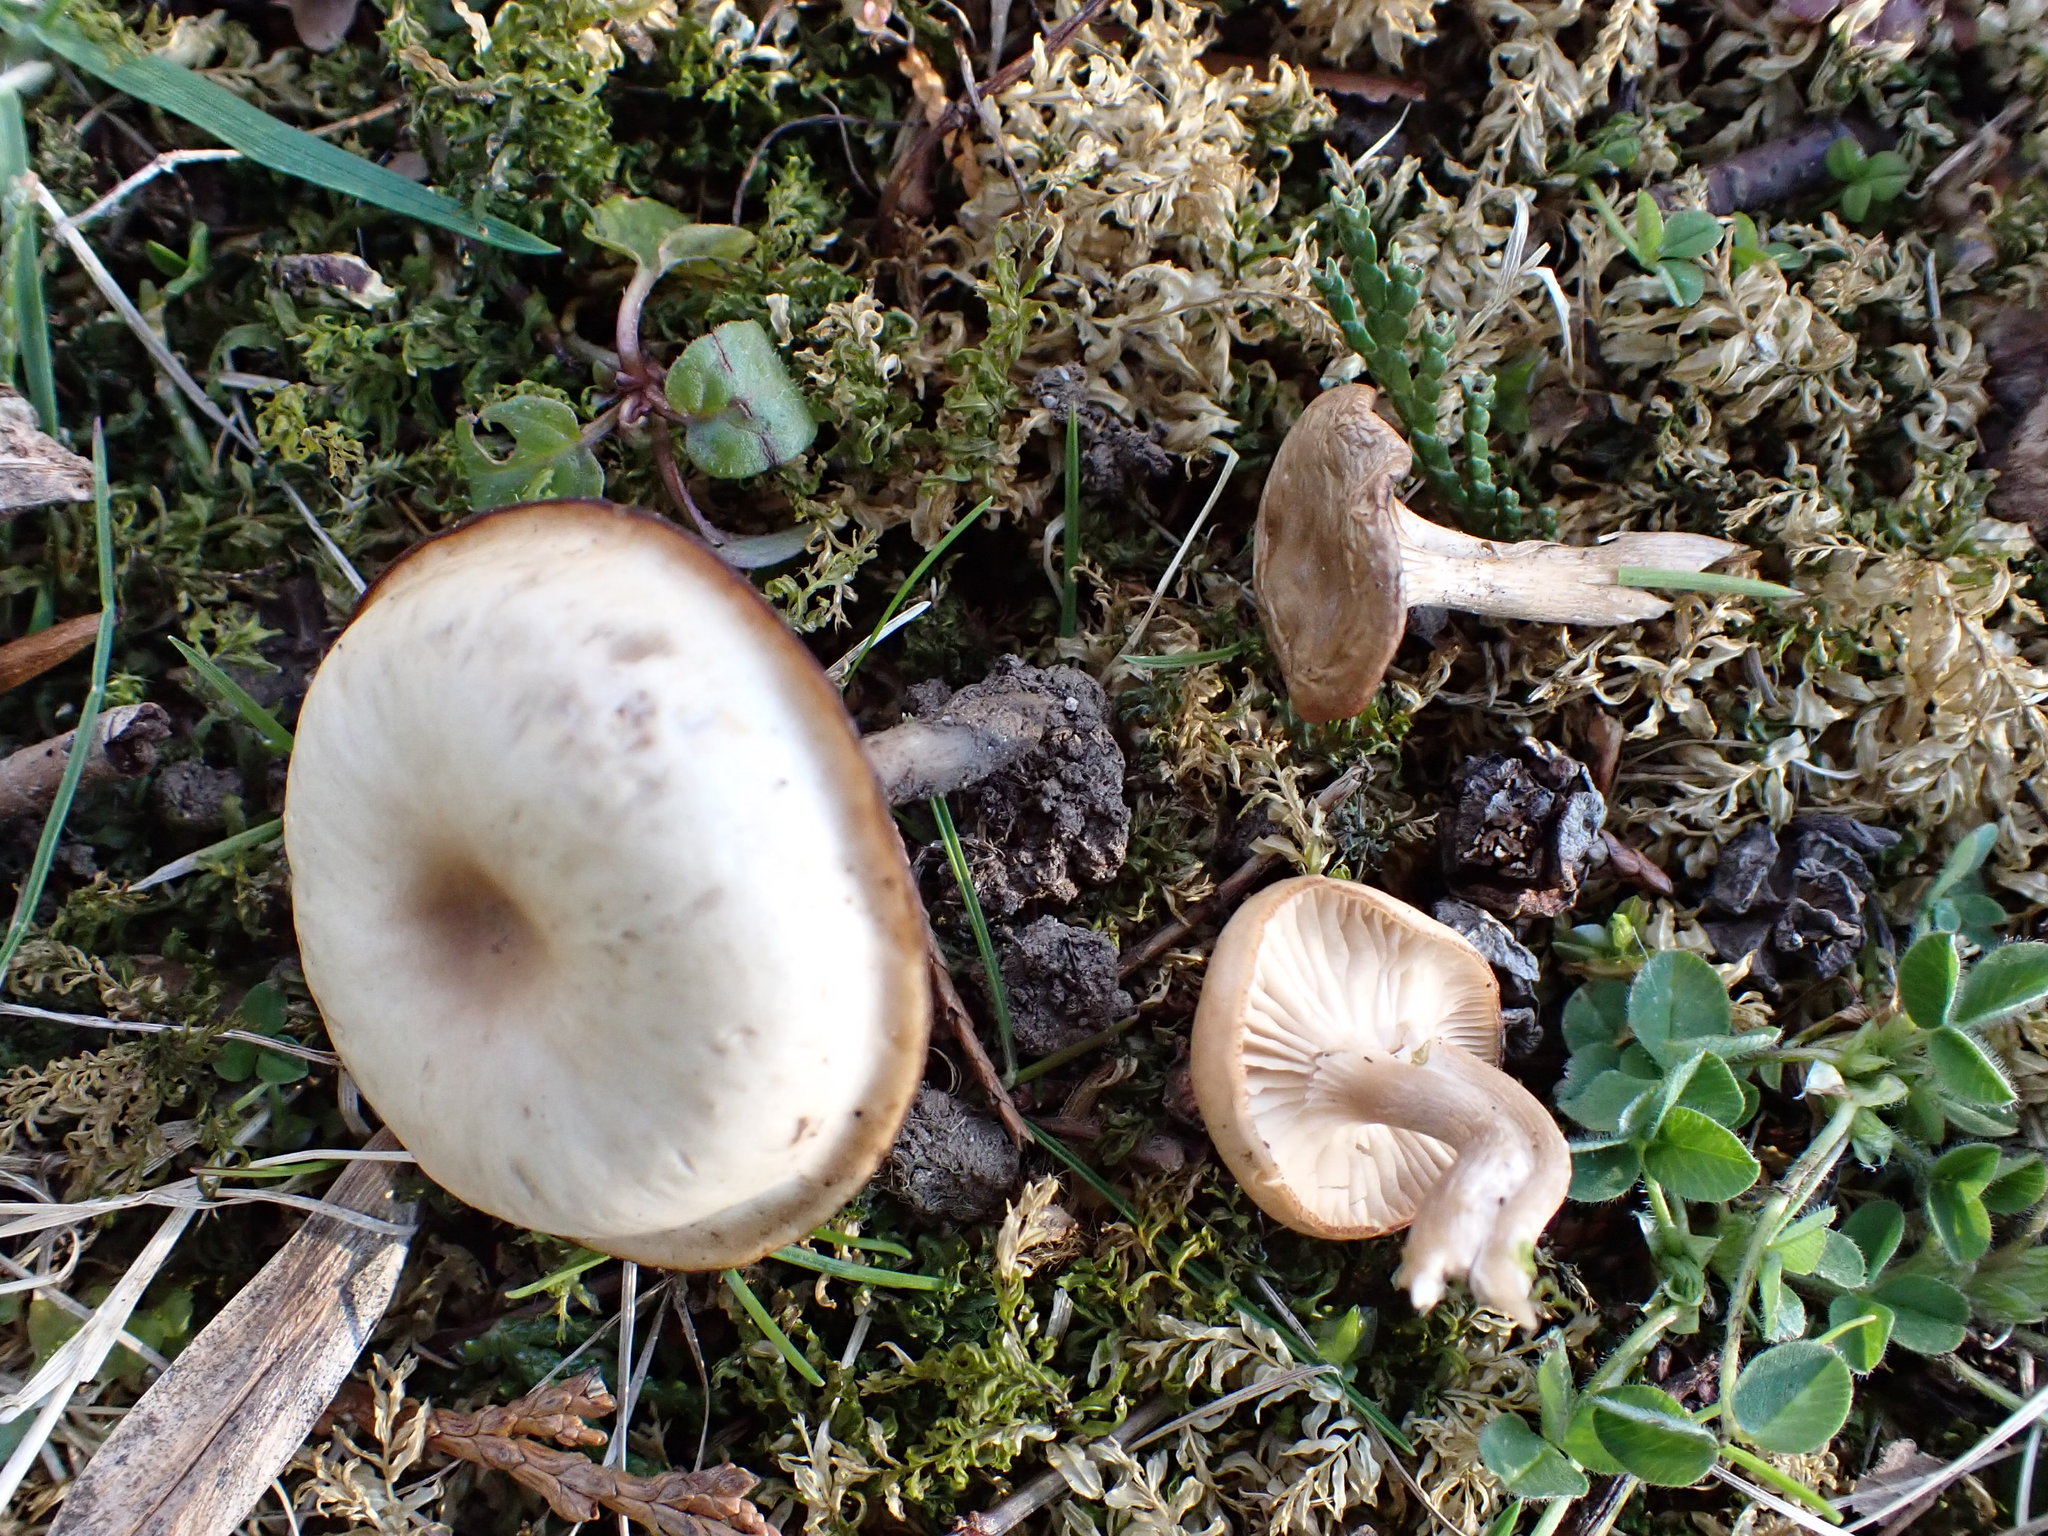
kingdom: Fungi
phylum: Basidiomycota
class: Agaricomycetes
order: Agaricales
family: Tricholomataceae
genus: Clitocybe
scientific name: Clitocybe fragrans
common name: Fragrant funnel
